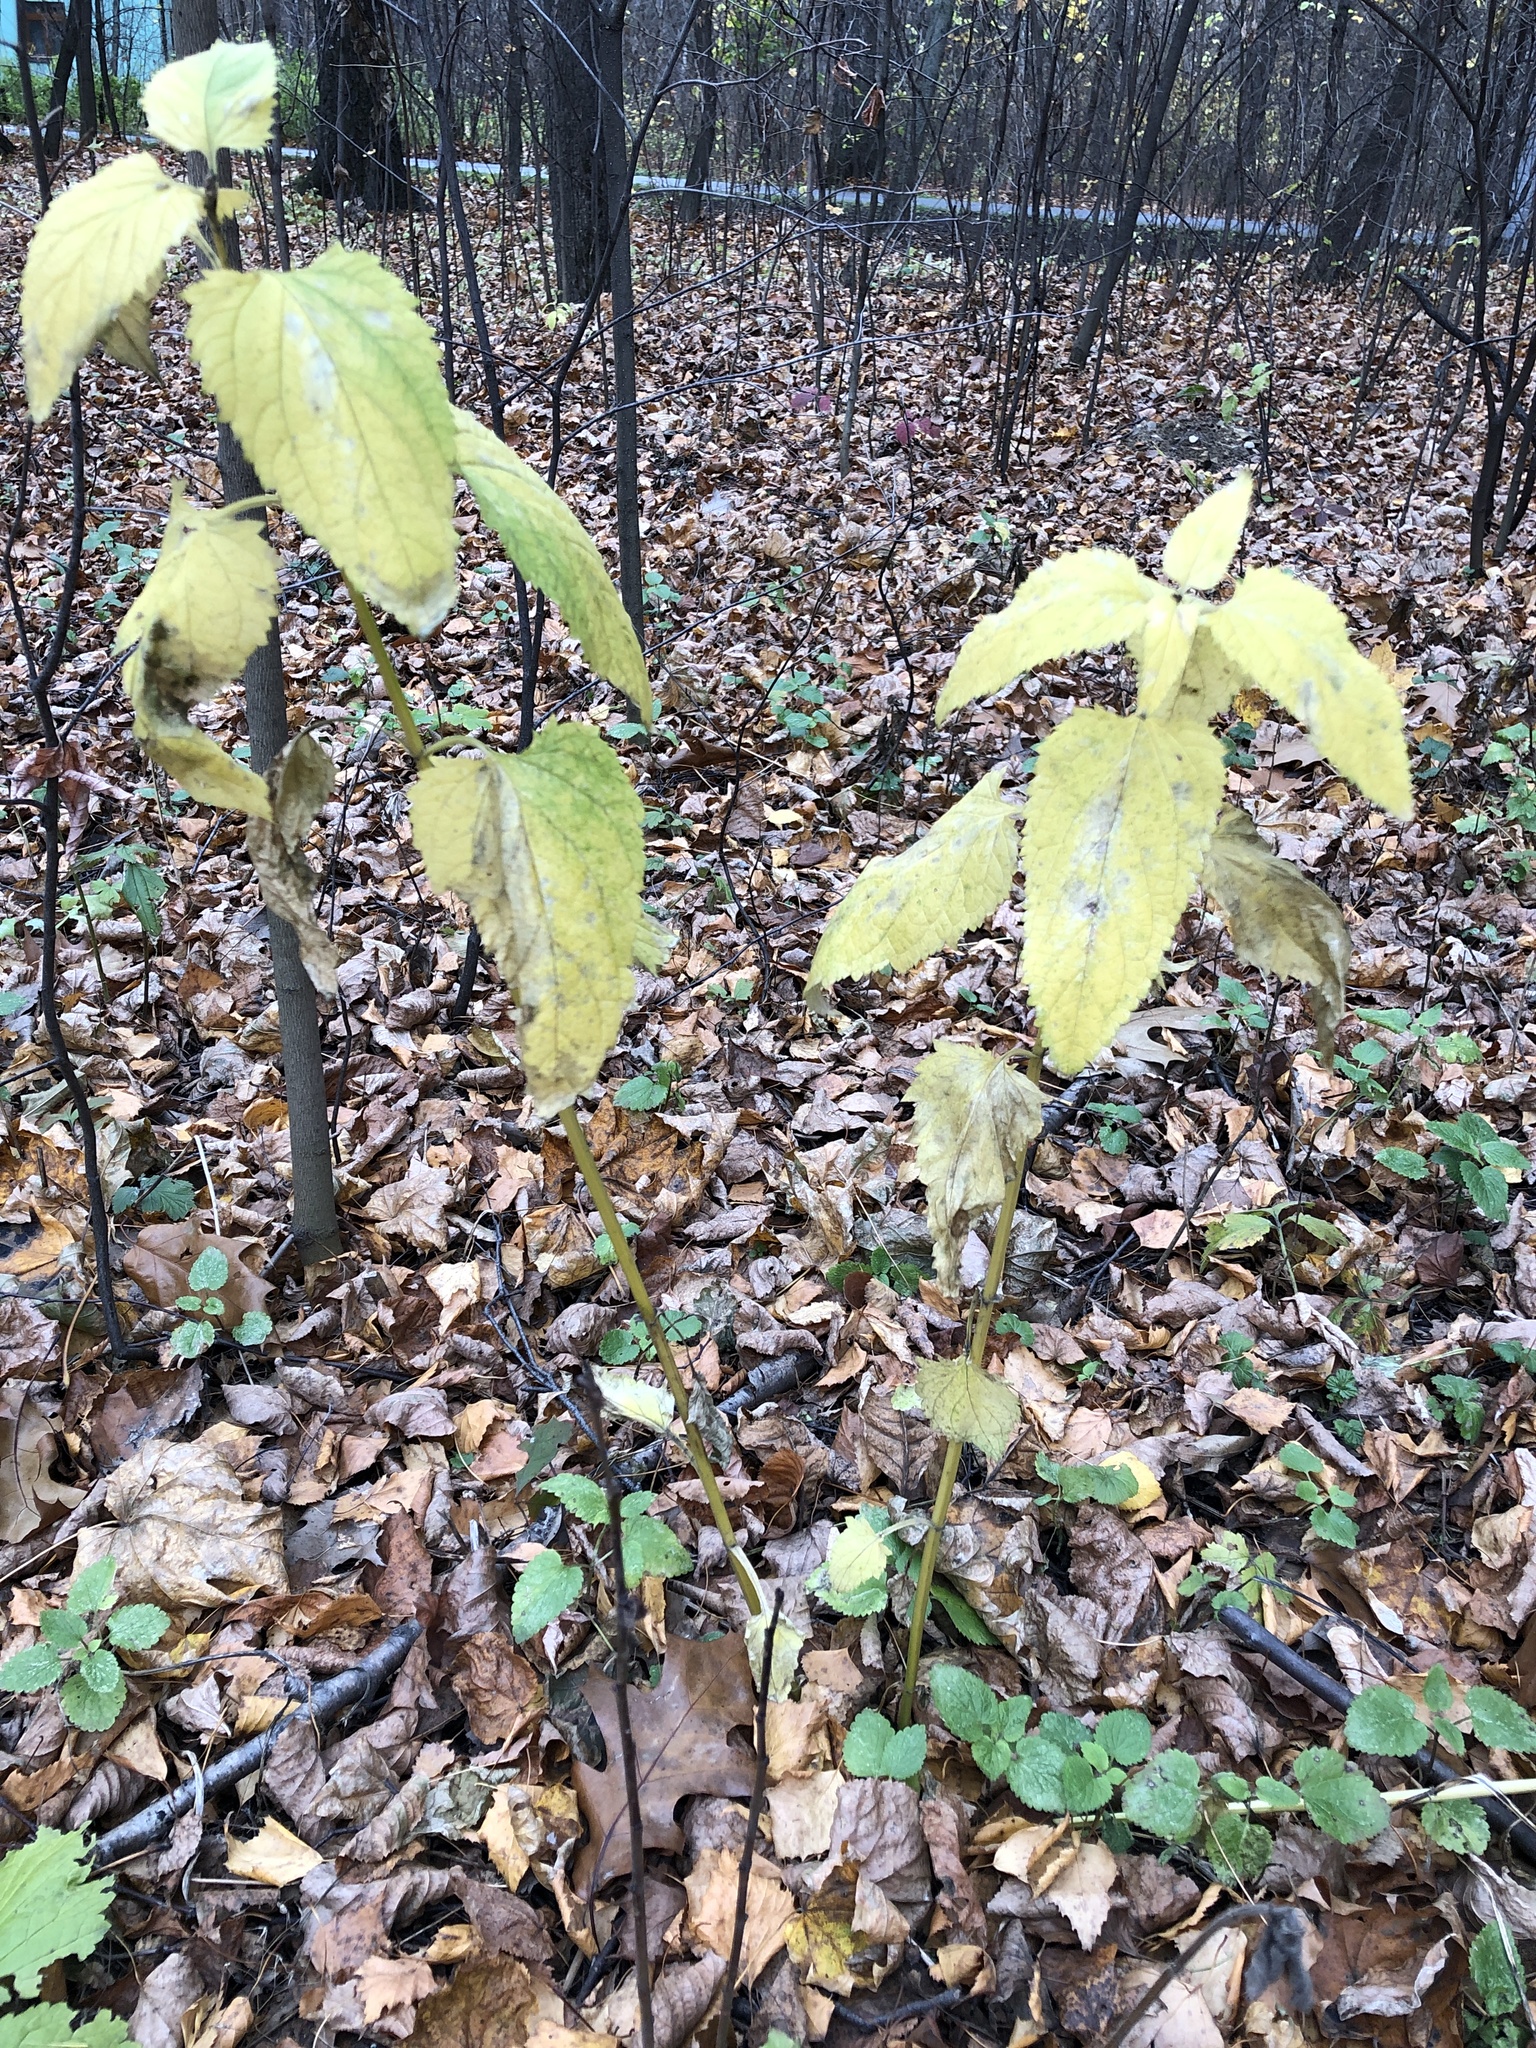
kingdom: Plantae
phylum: Tracheophyta
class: Magnoliopsida
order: Lamiales
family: Scrophulariaceae
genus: Scrophularia
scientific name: Scrophularia nodosa
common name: Common figwort
